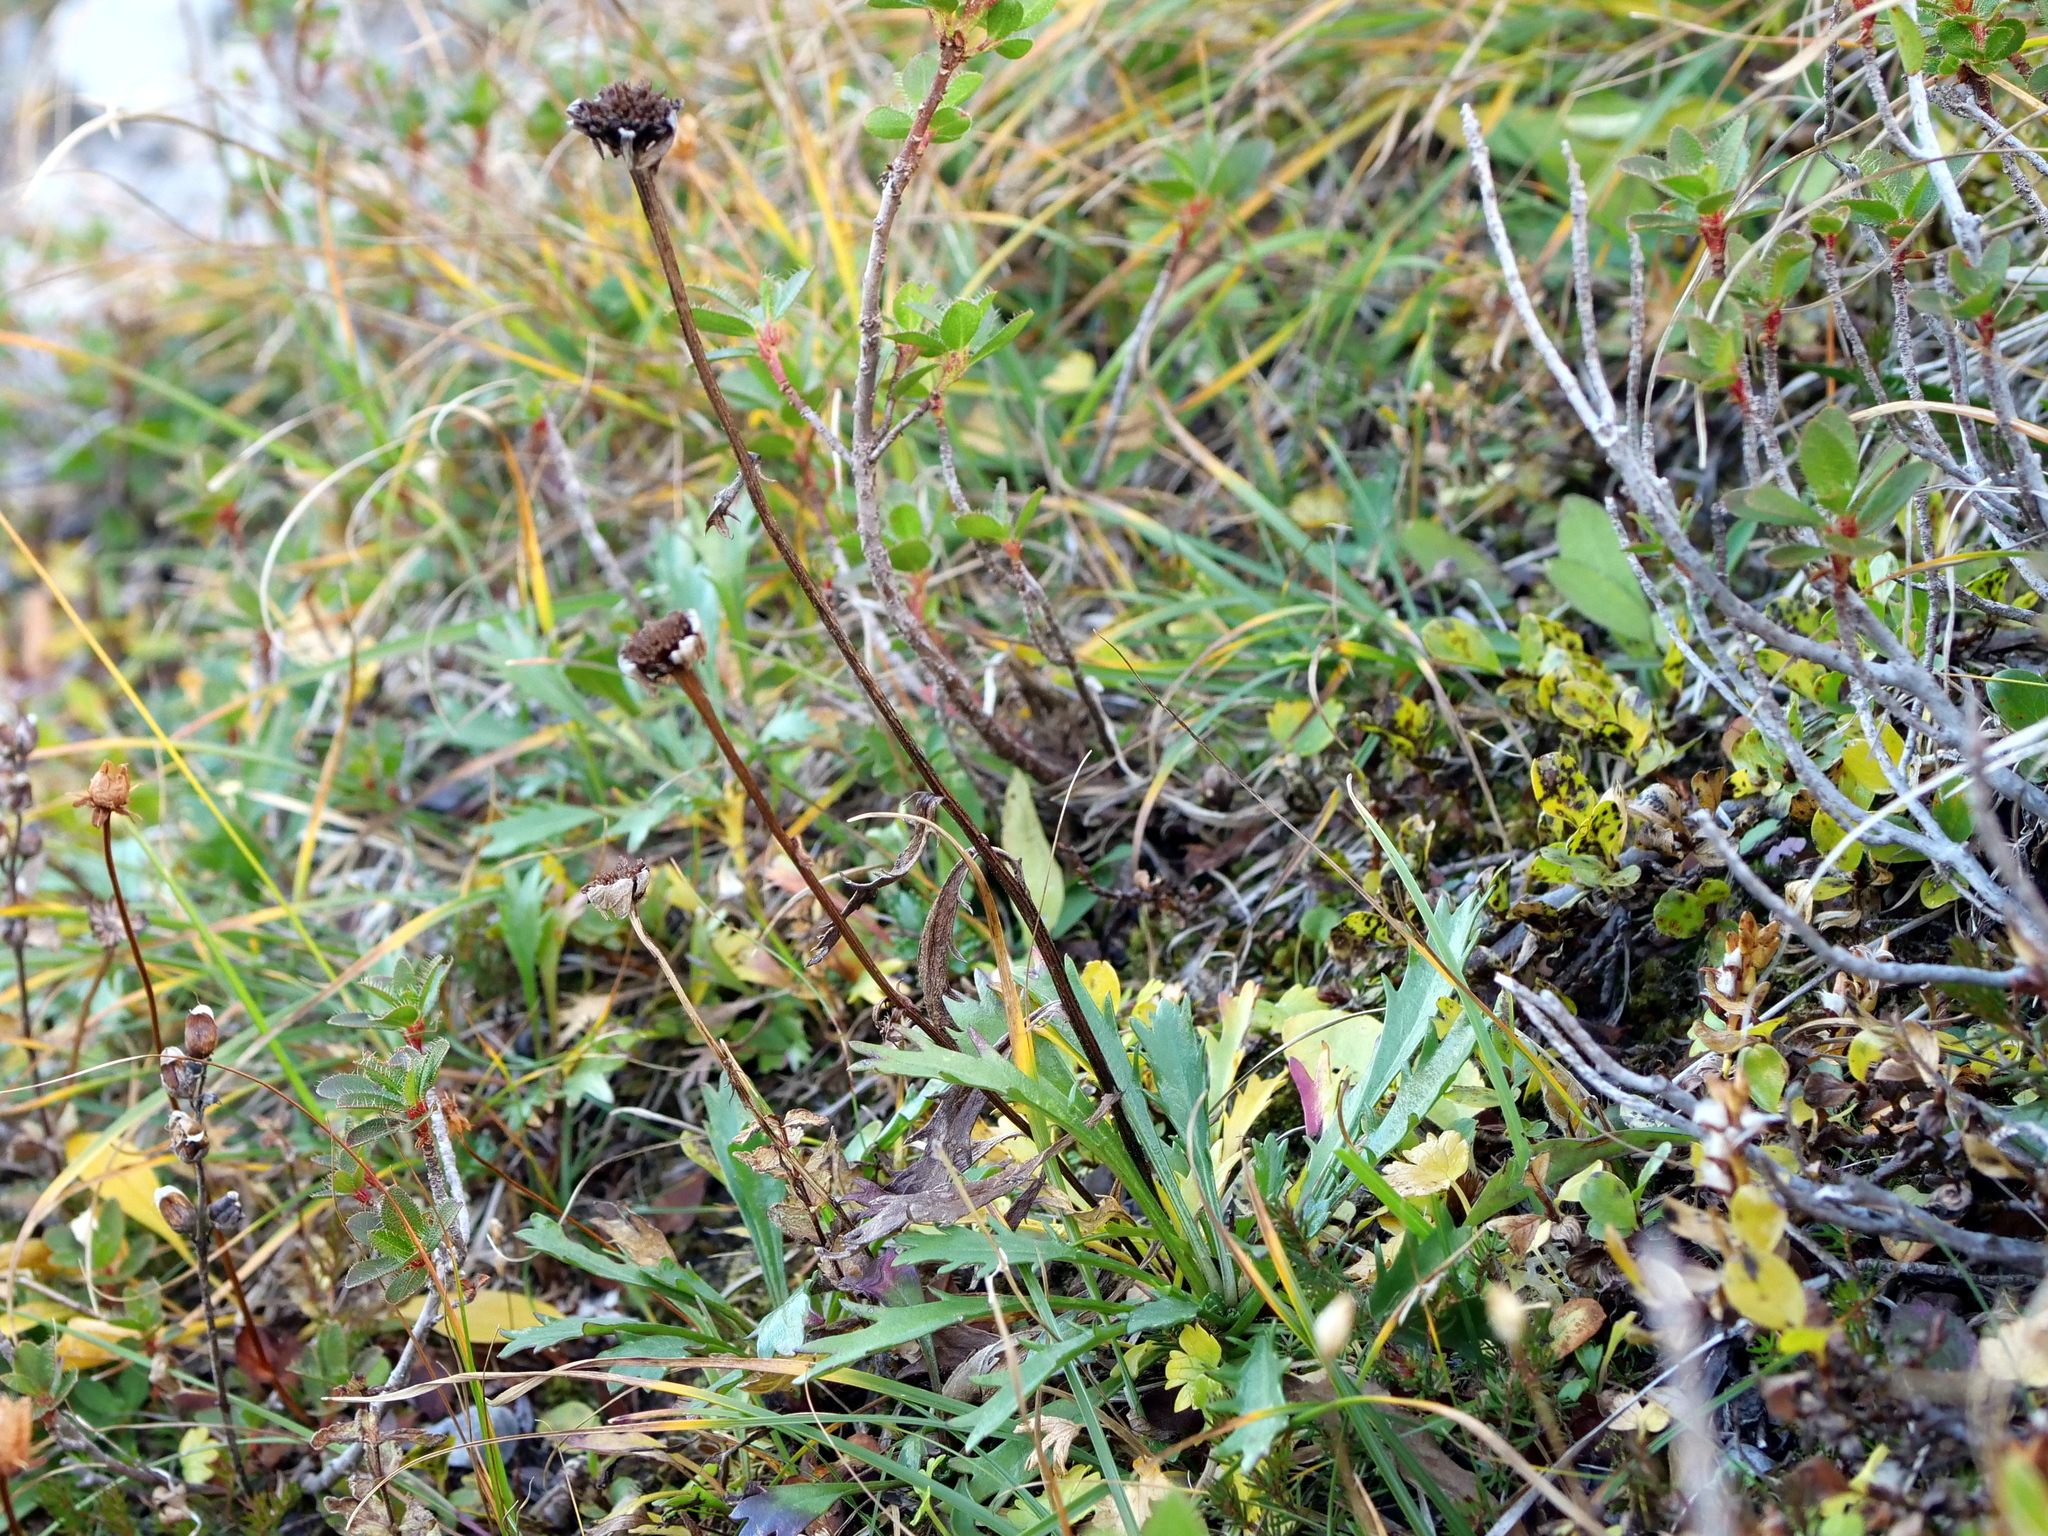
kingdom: Plantae
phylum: Tracheophyta
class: Magnoliopsida
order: Asterales
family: Asteraceae
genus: Leucanthemum
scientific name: Leucanthemum halleri
